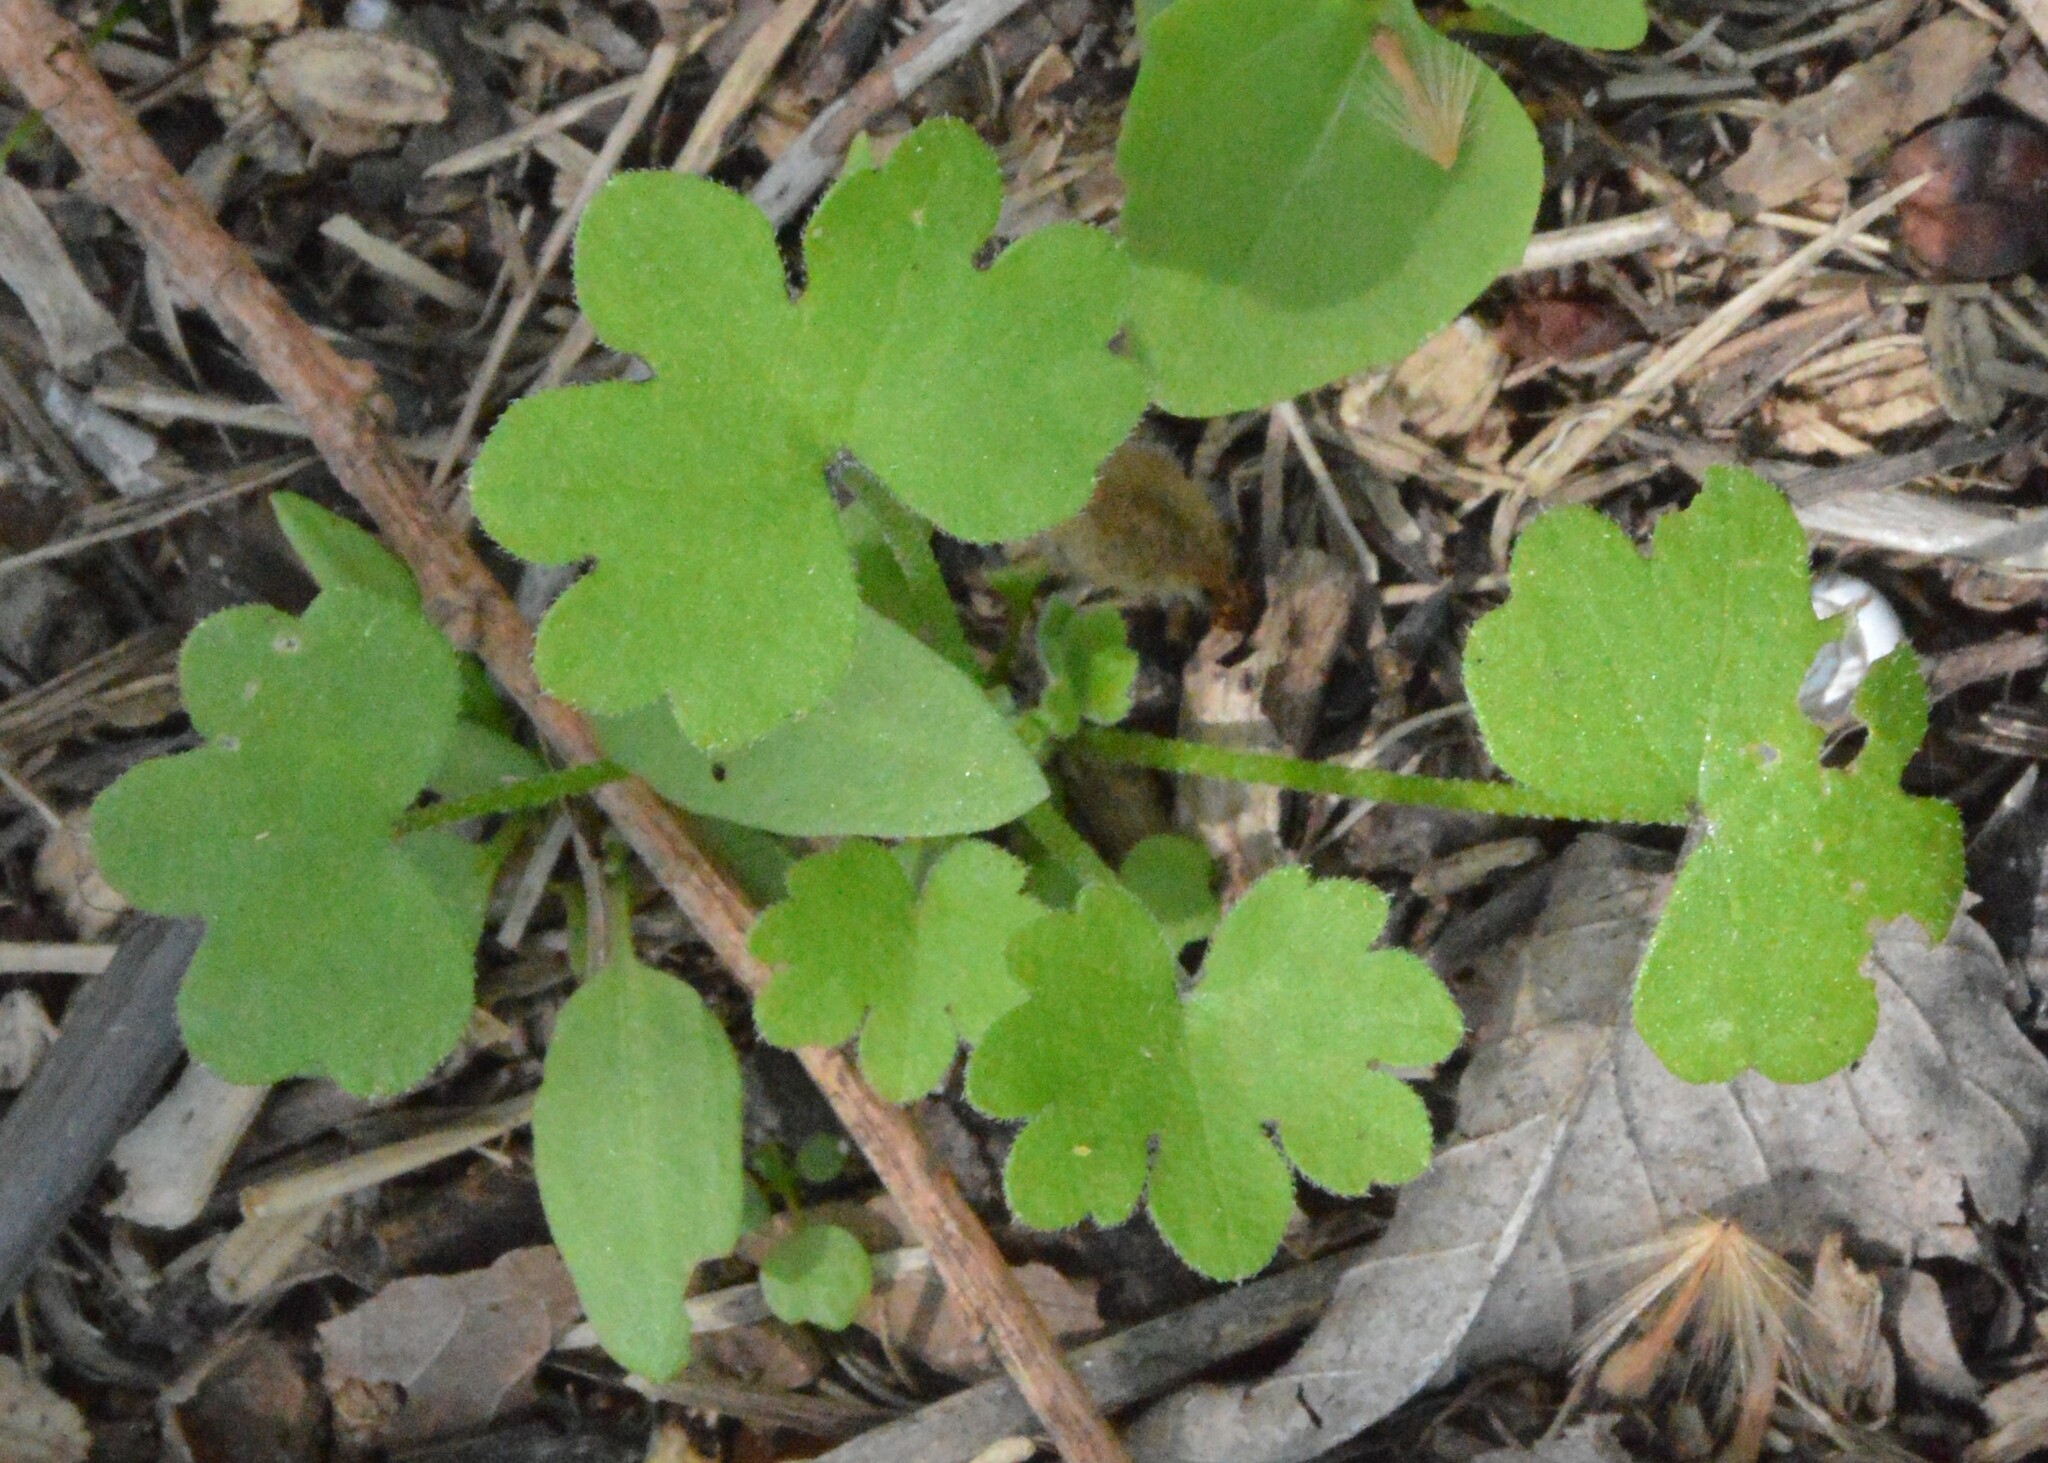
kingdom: Plantae
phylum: Tracheophyta
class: Magnoliopsida
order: Apiales
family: Apiaceae
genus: Bowlesia
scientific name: Bowlesia incana
